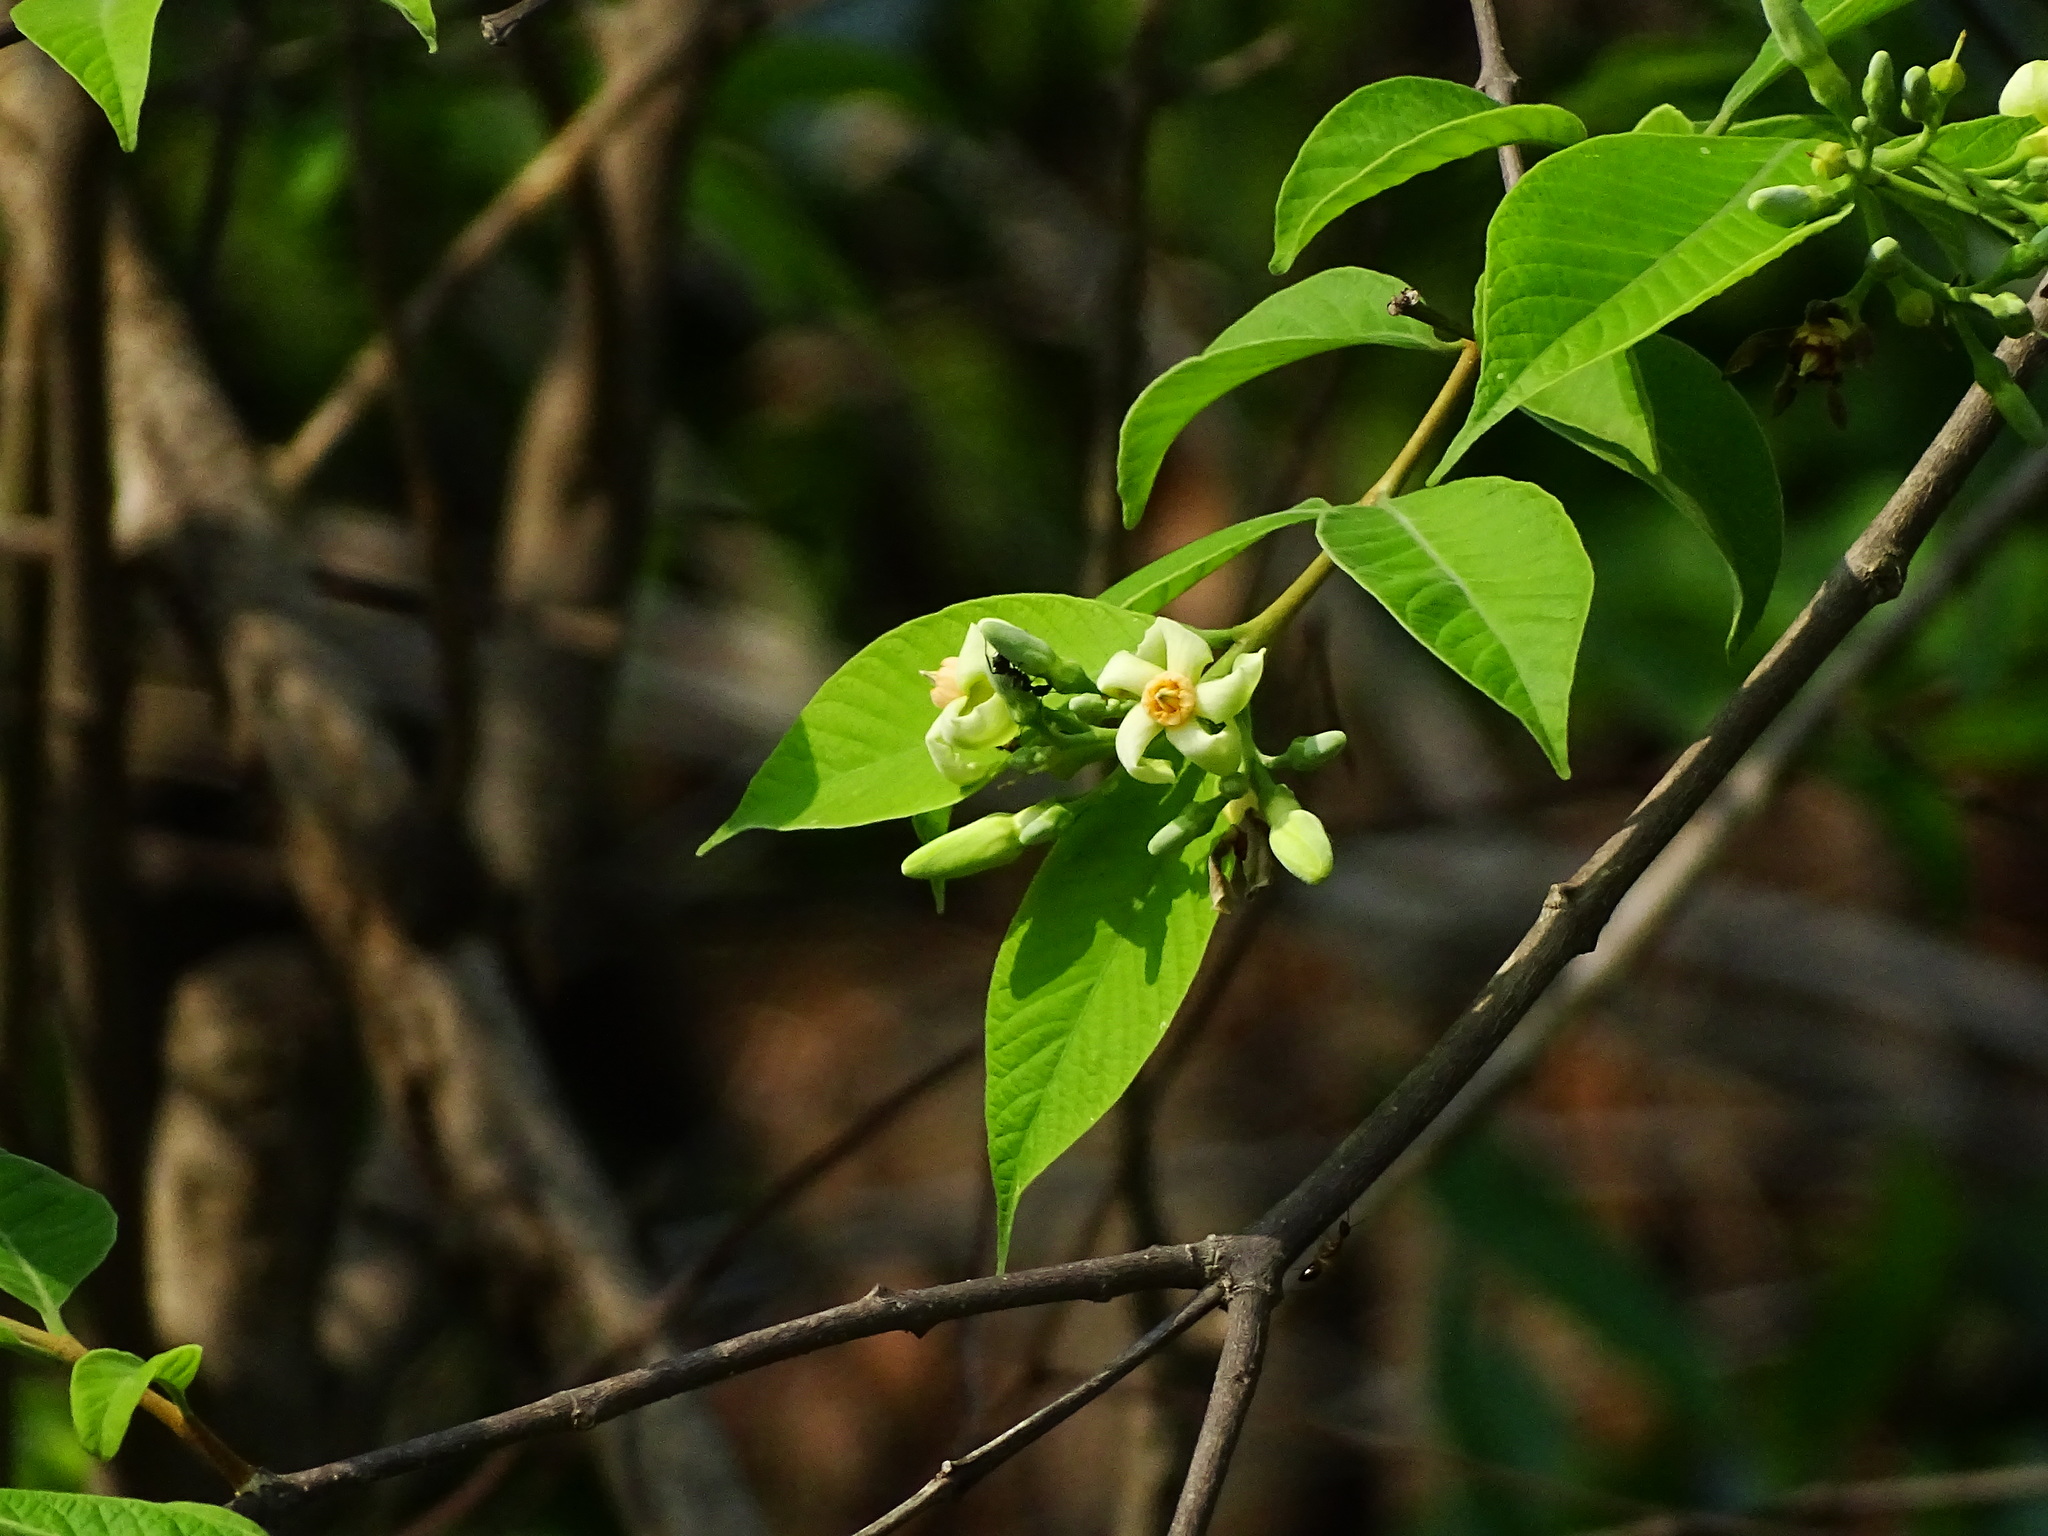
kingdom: Plantae
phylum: Tracheophyta
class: Magnoliopsida
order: Gentianales
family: Apocynaceae
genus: Wrightia
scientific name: Wrightia arborea
